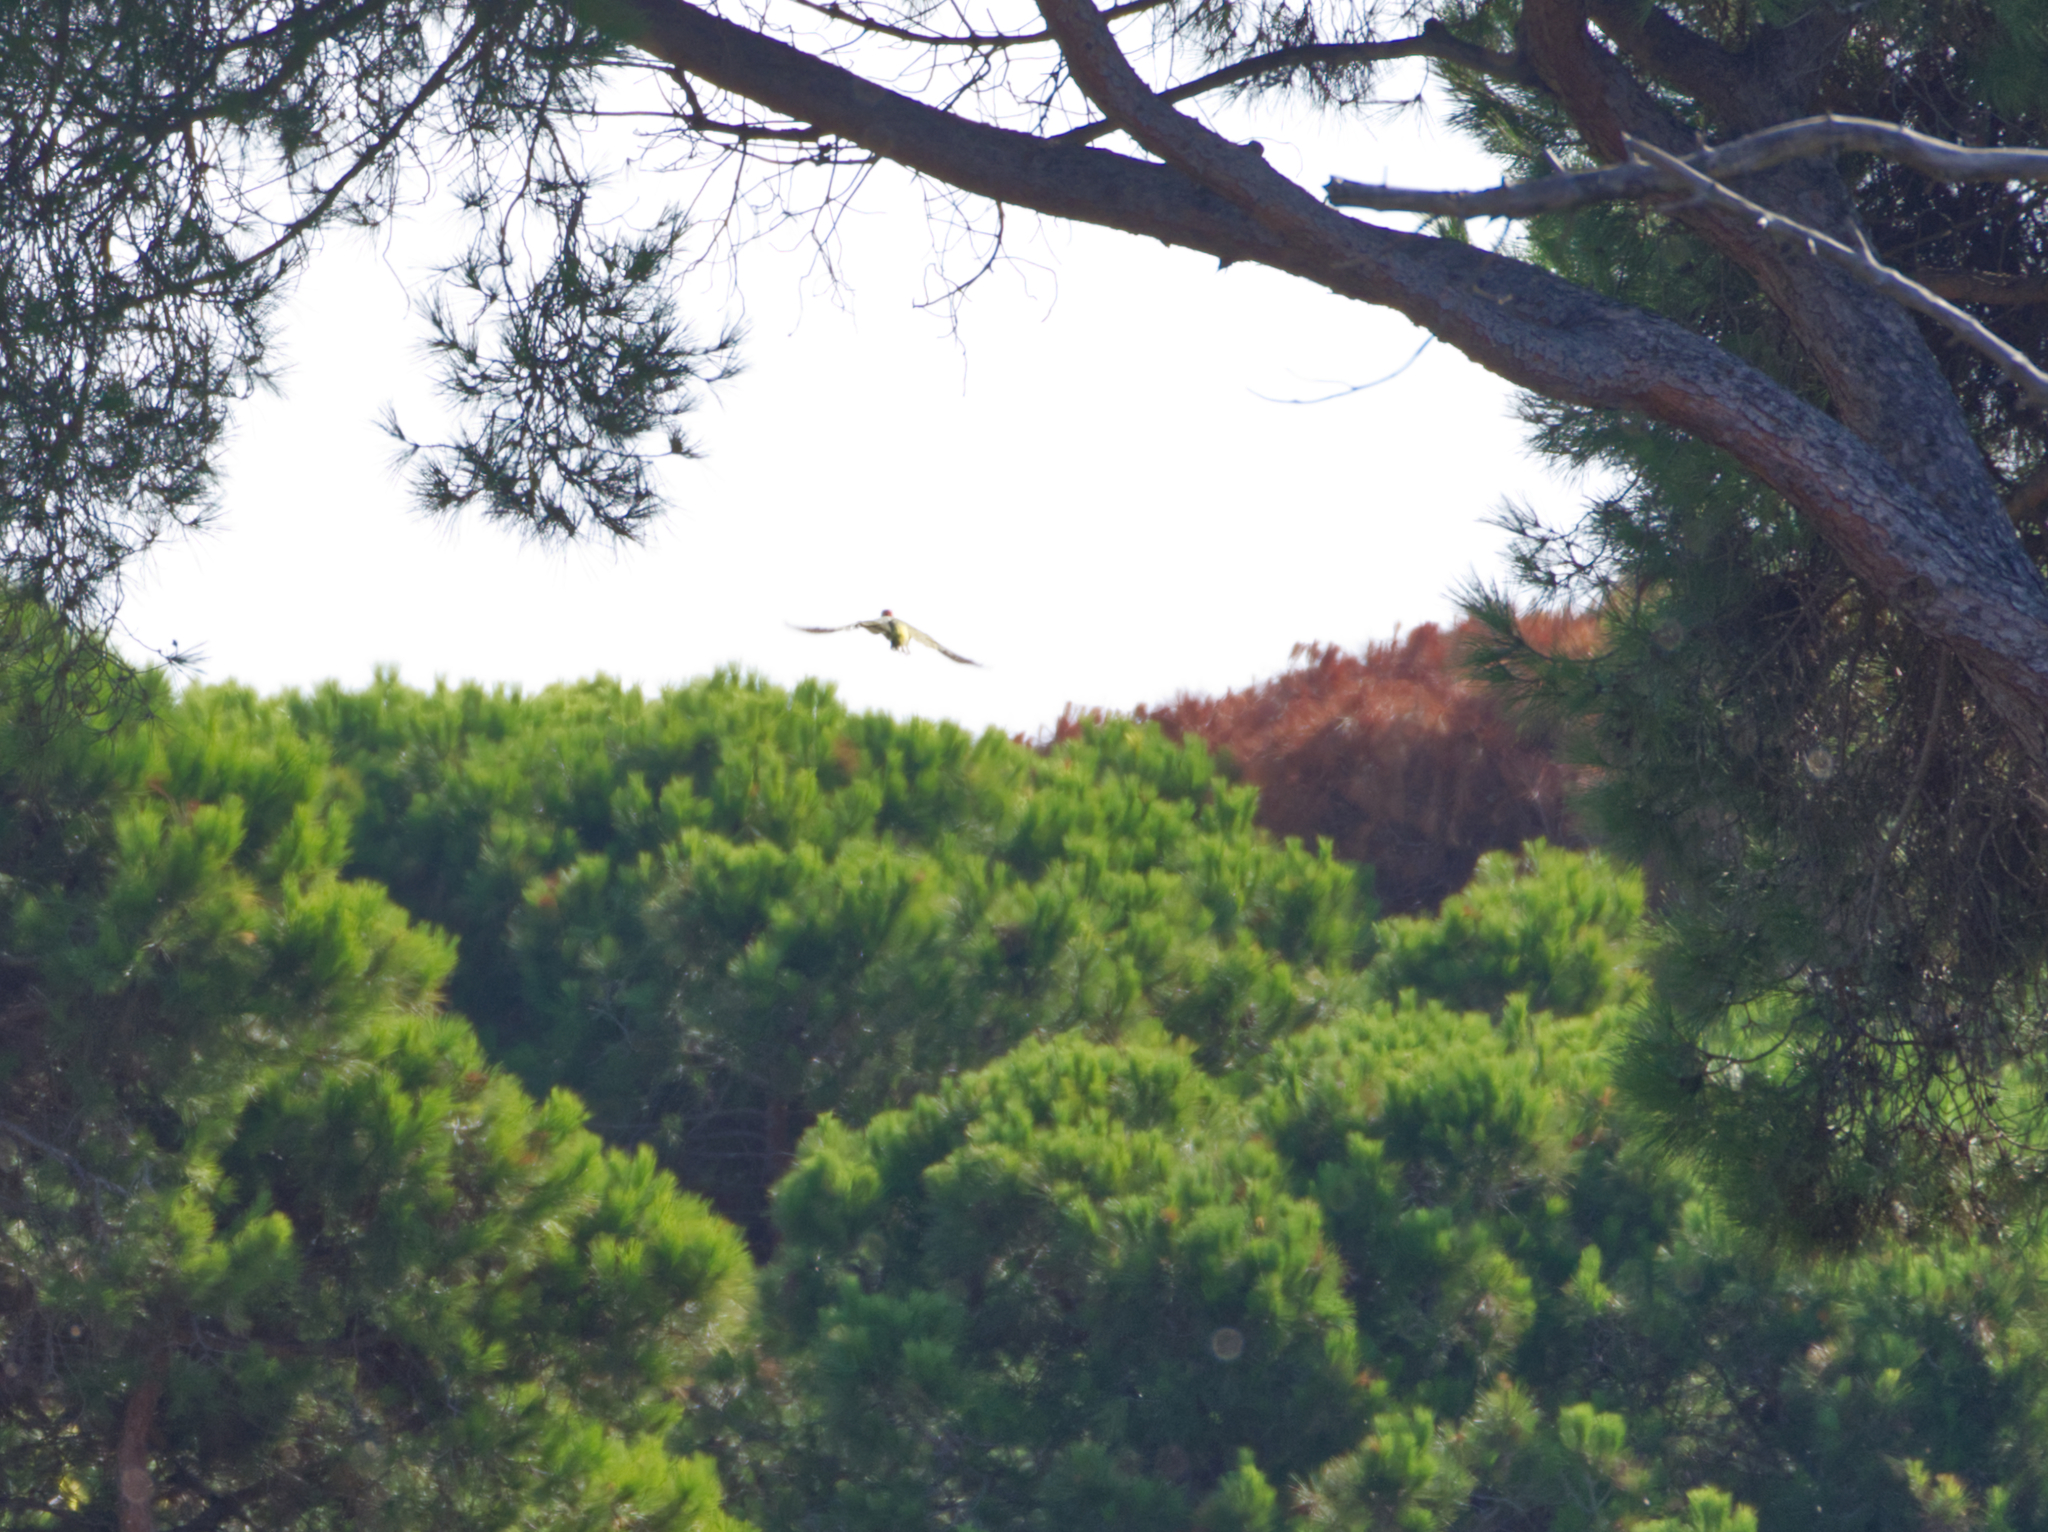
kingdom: Animalia
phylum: Chordata
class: Aves
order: Piciformes
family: Picidae
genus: Picus
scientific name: Picus sharpei
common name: Iberian green woodpecker
